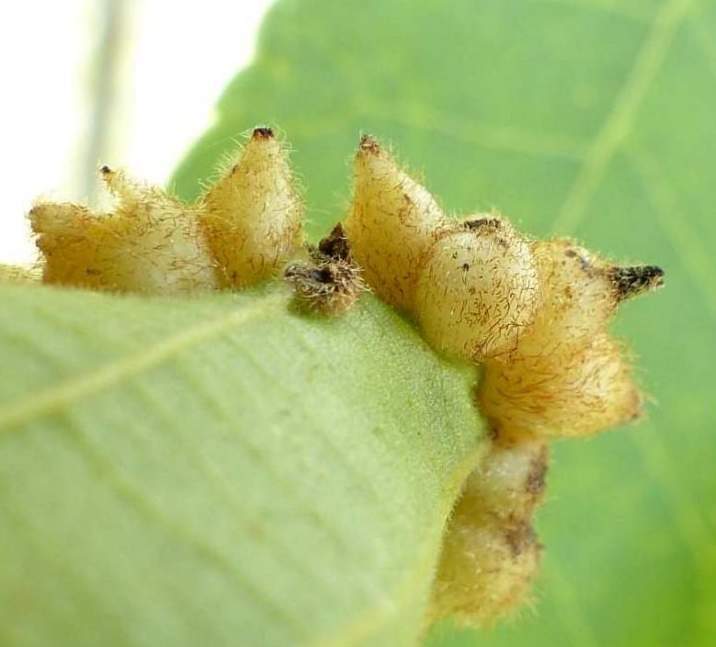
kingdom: Animalia
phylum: Arthropoda
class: Insecta
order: Diptera
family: Cecidomyiidae
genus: Caryomyia
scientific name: Caryomyia ansericollum
